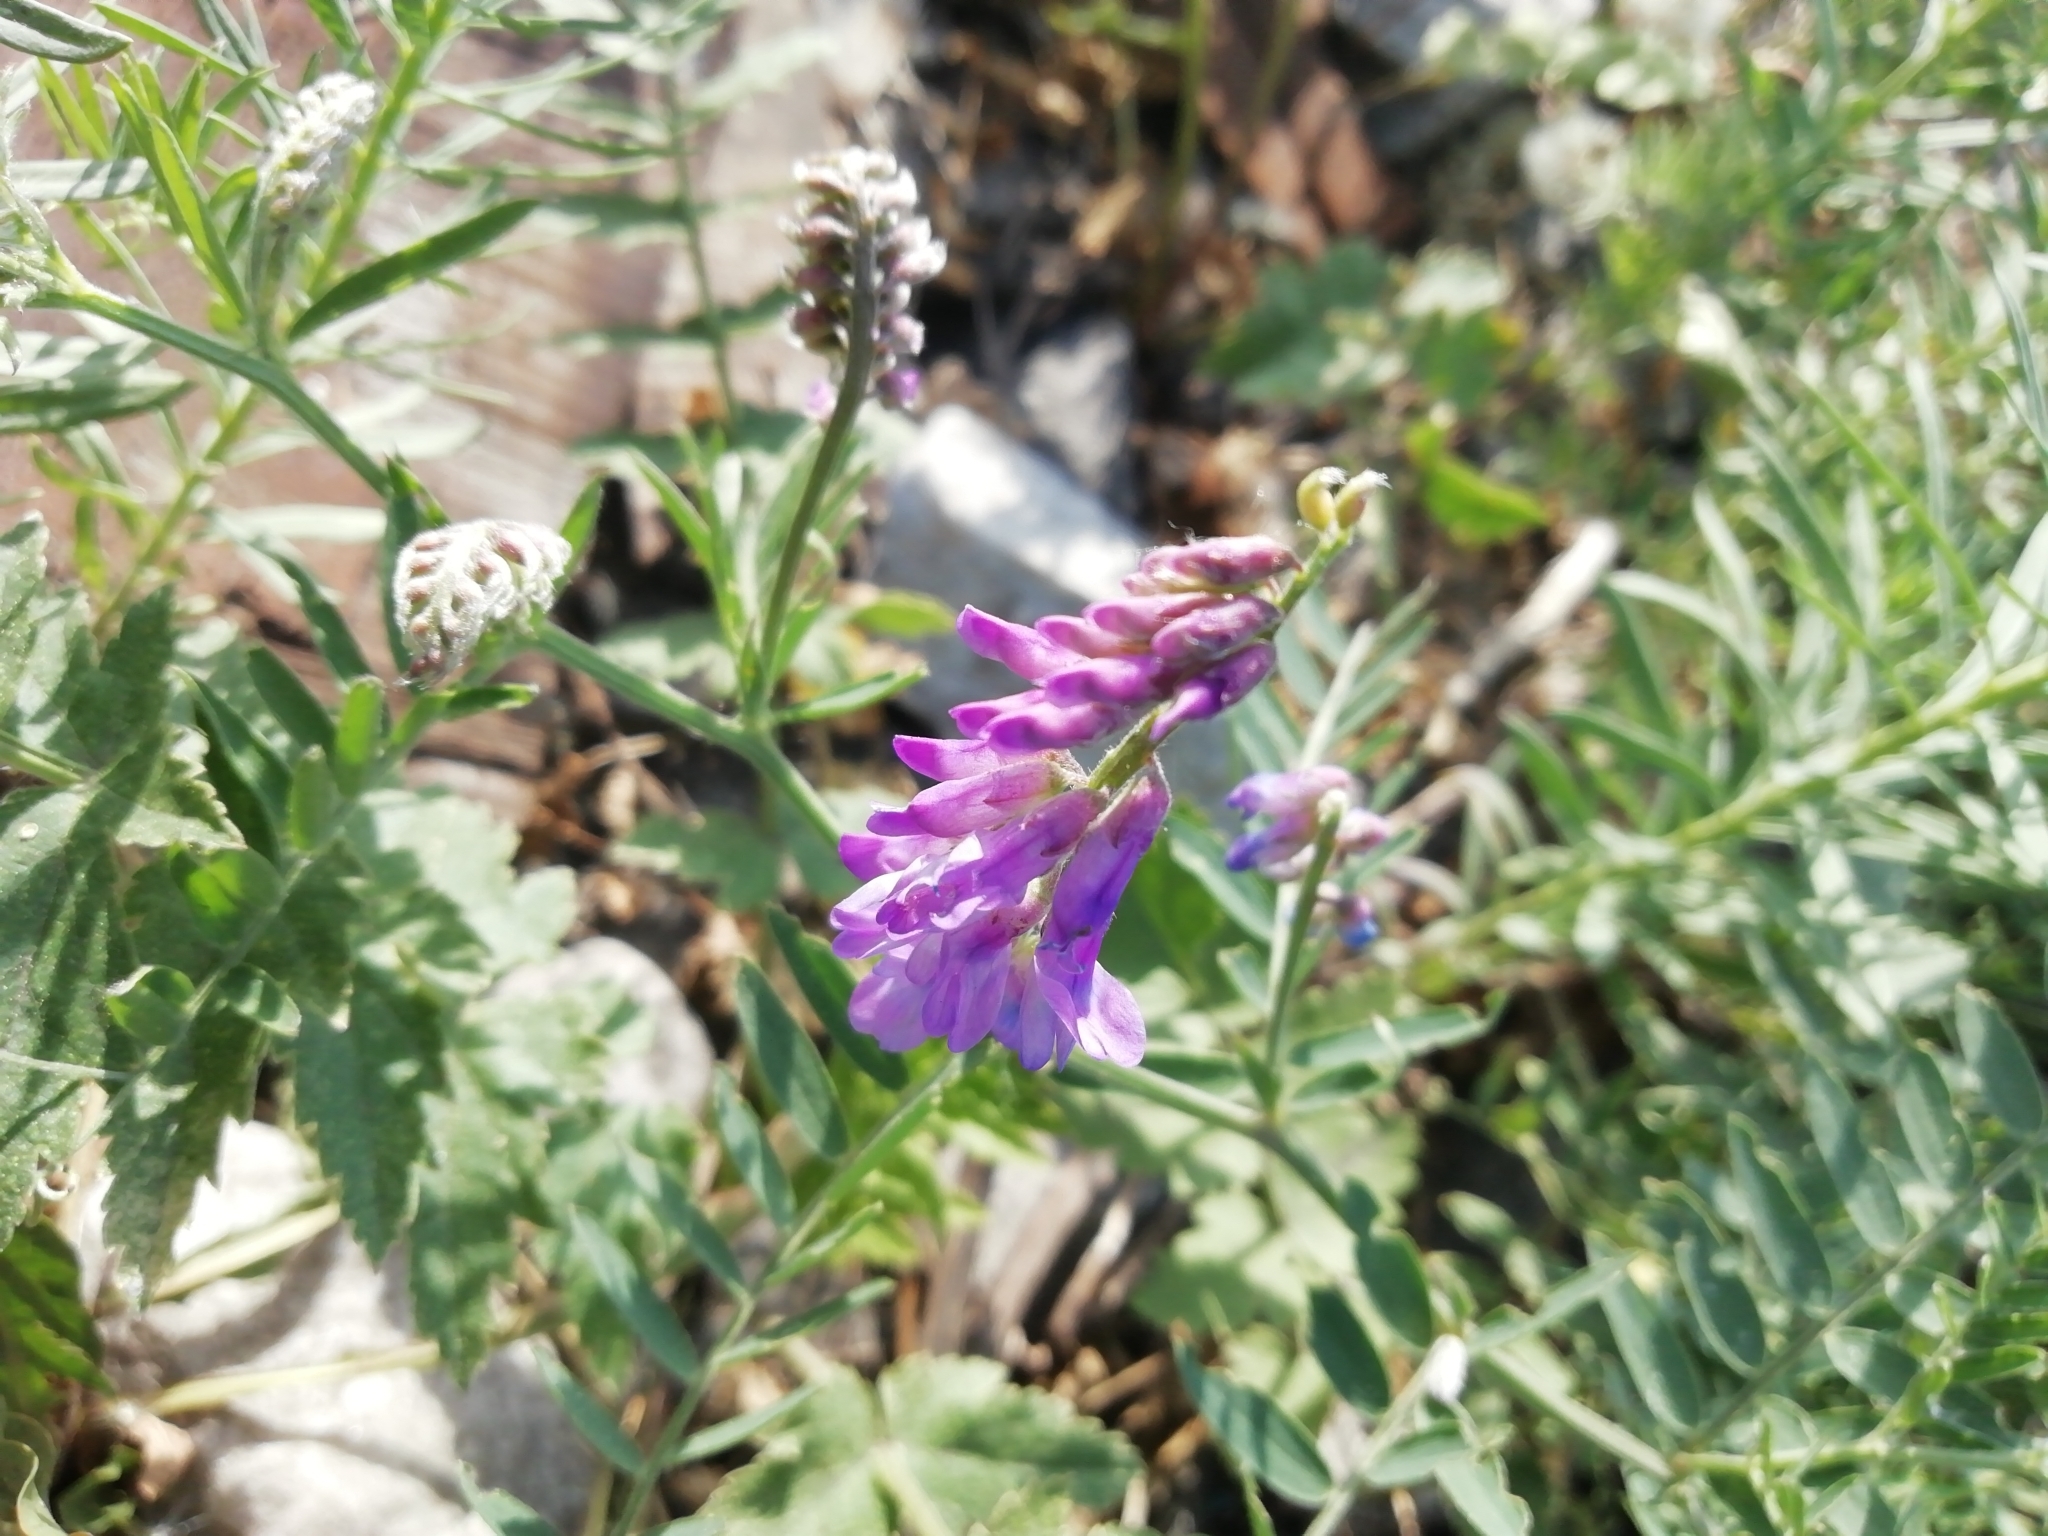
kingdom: Plantae
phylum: Tracheophyta
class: Magnoliopsida
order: Fabales
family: Fabaceae
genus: Vicia
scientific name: Vicia cracca
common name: Bird vetch
